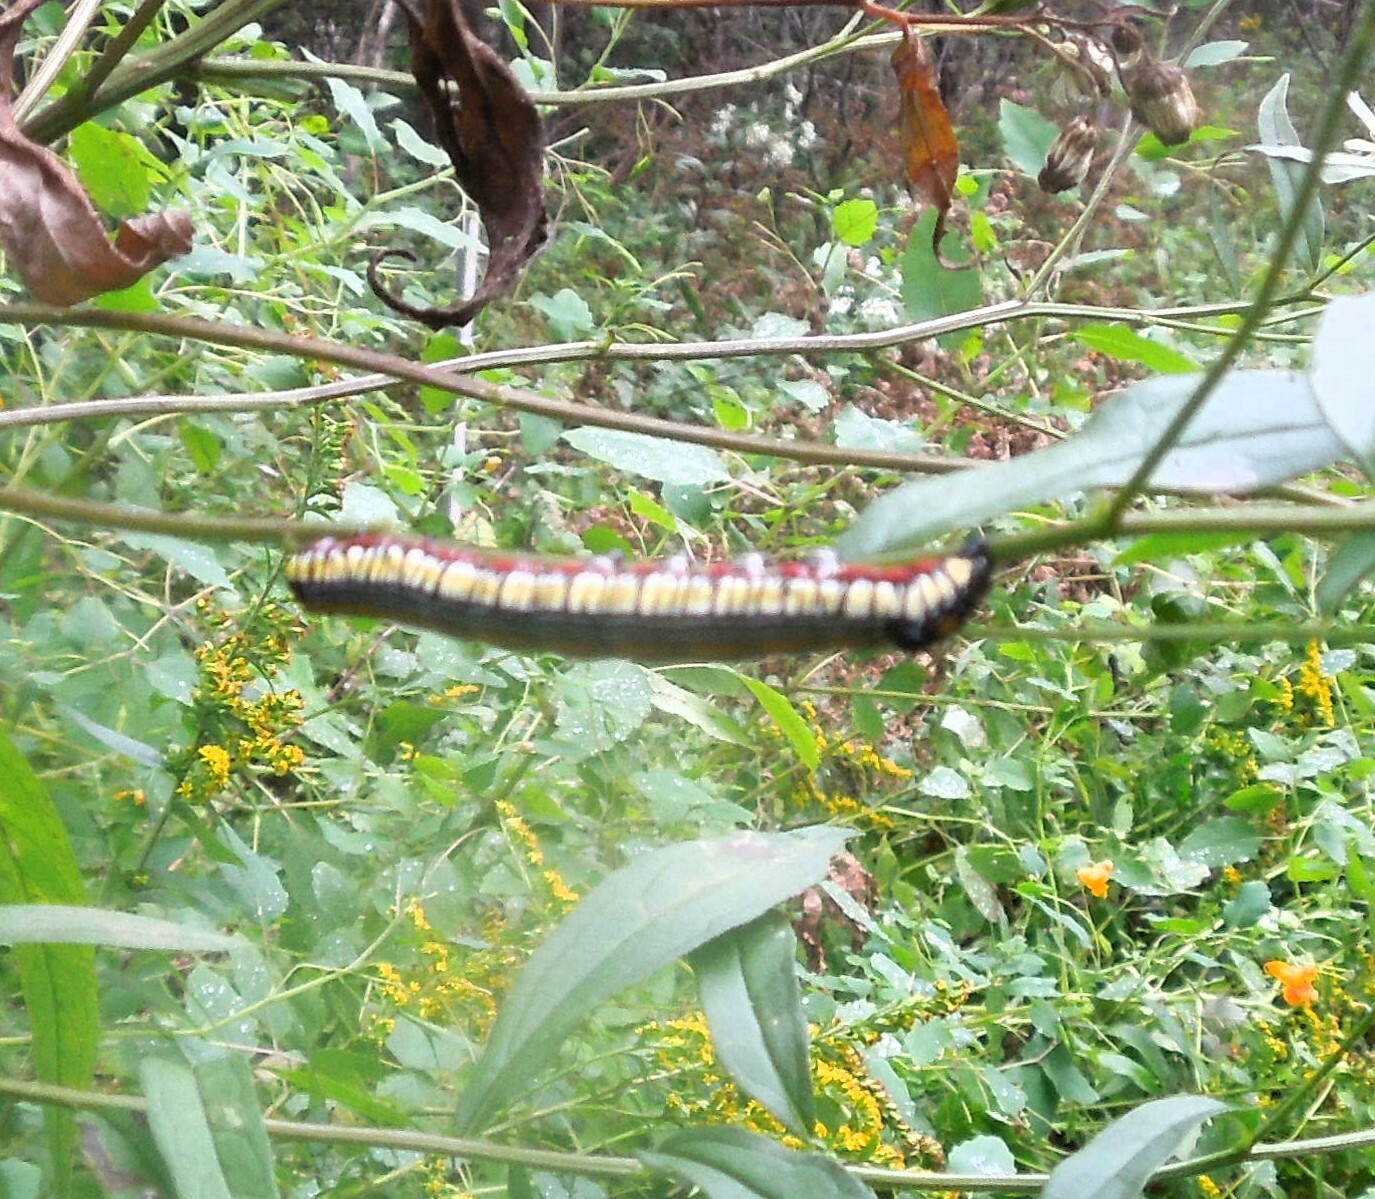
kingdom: Animalia
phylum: Arthropoda
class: Insecta
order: Lepidoptera
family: Noctuidae
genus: Cucullia
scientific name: Cucullia convexipennis
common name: Brown-hooded owlet
